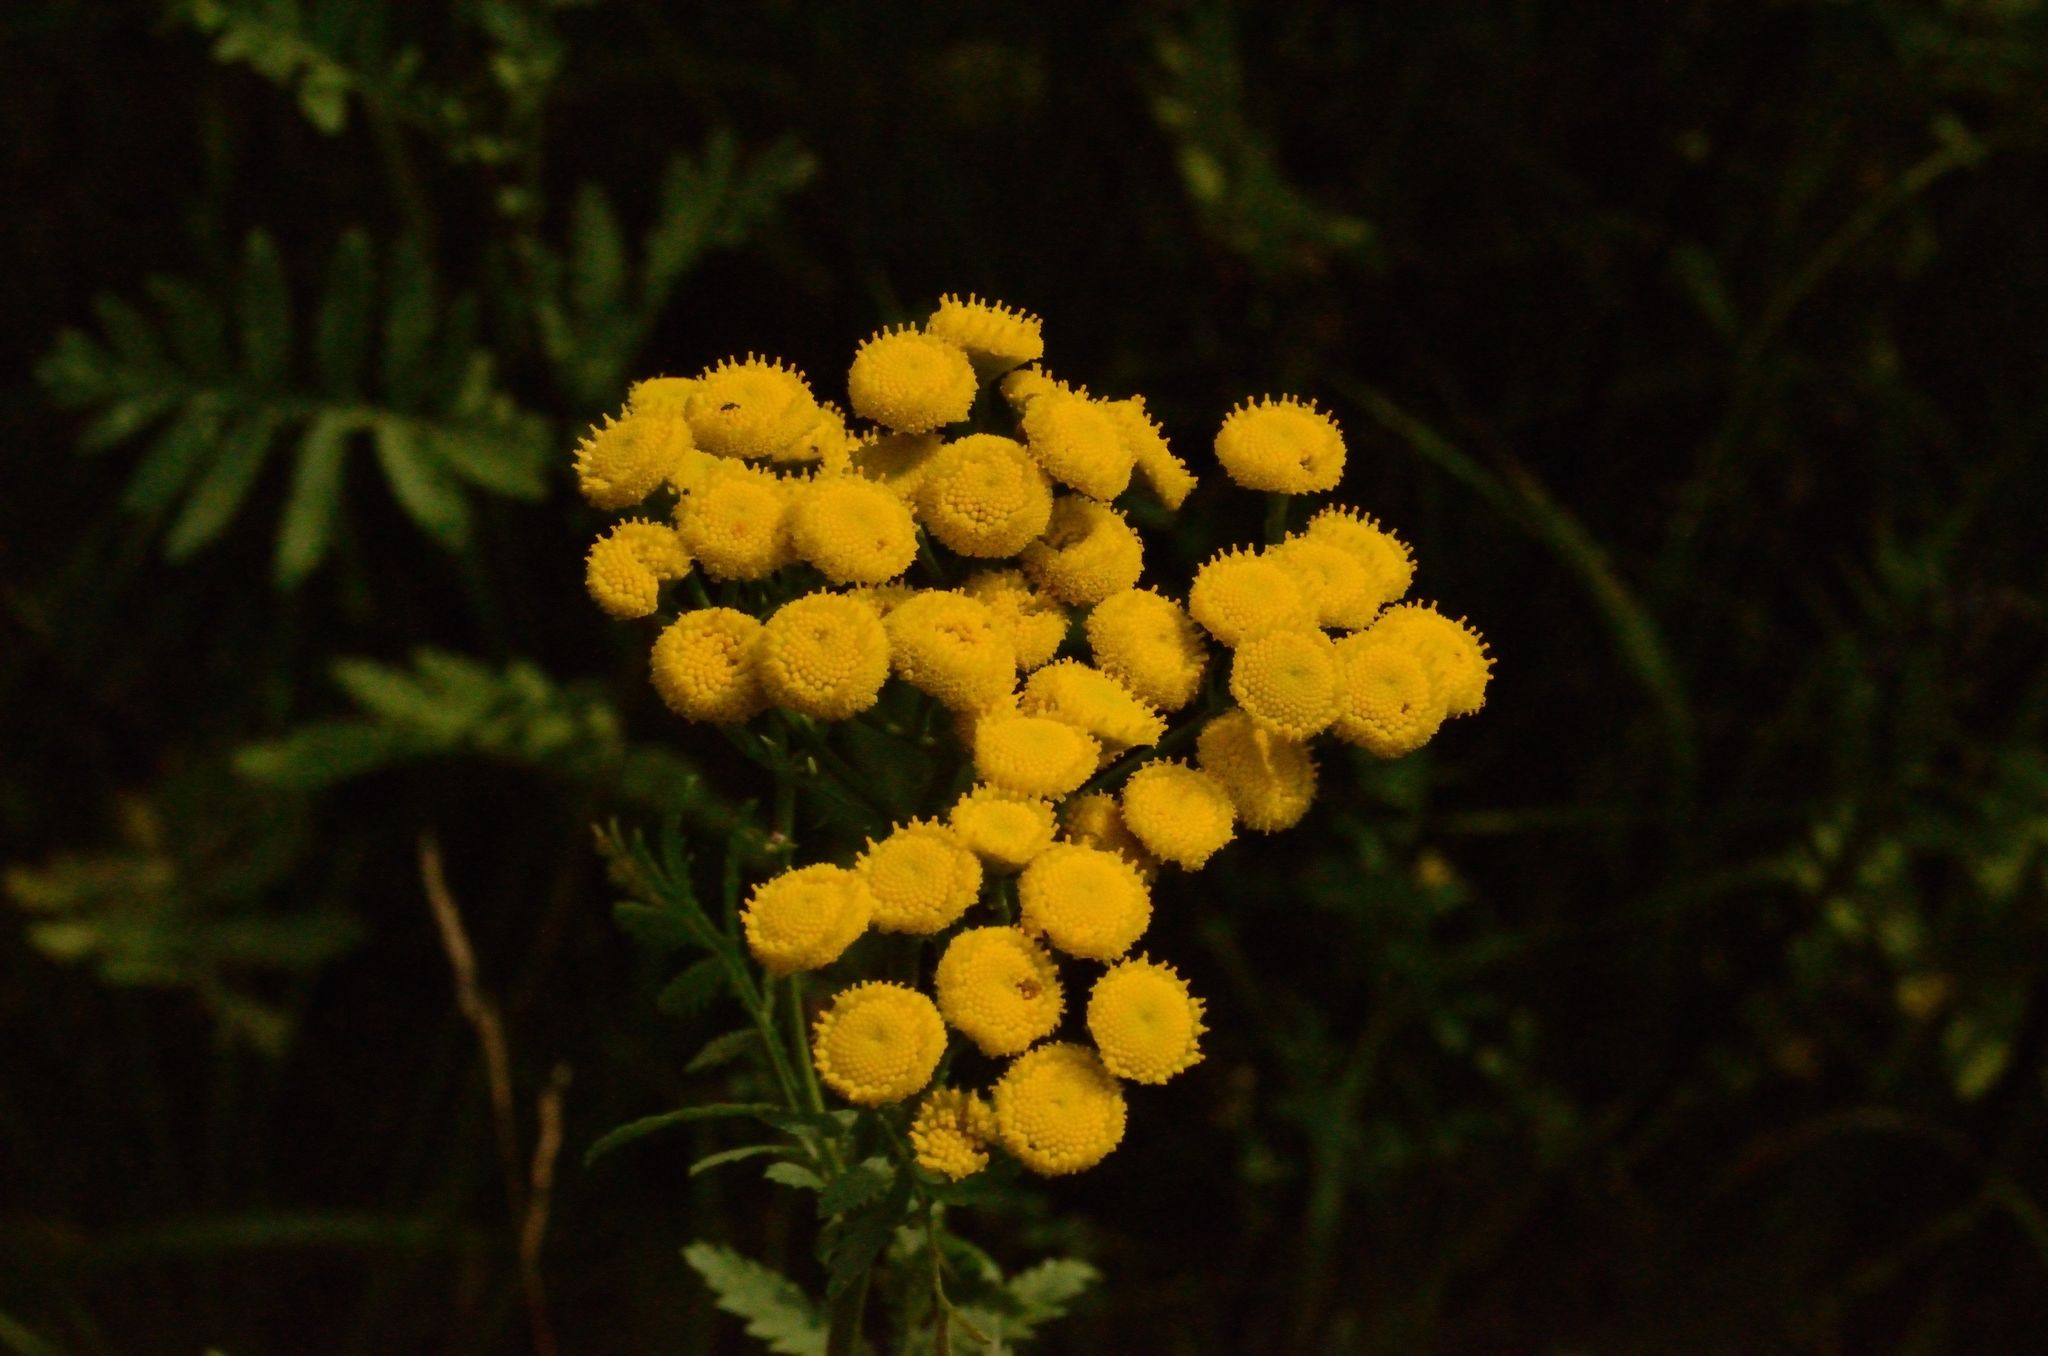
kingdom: Plantae
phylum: Tracheophyta
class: Magnoliopsida
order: Asterales
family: Asteraceae
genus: Tanacetum
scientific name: Tanacetum vulgare
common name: Common tansy
